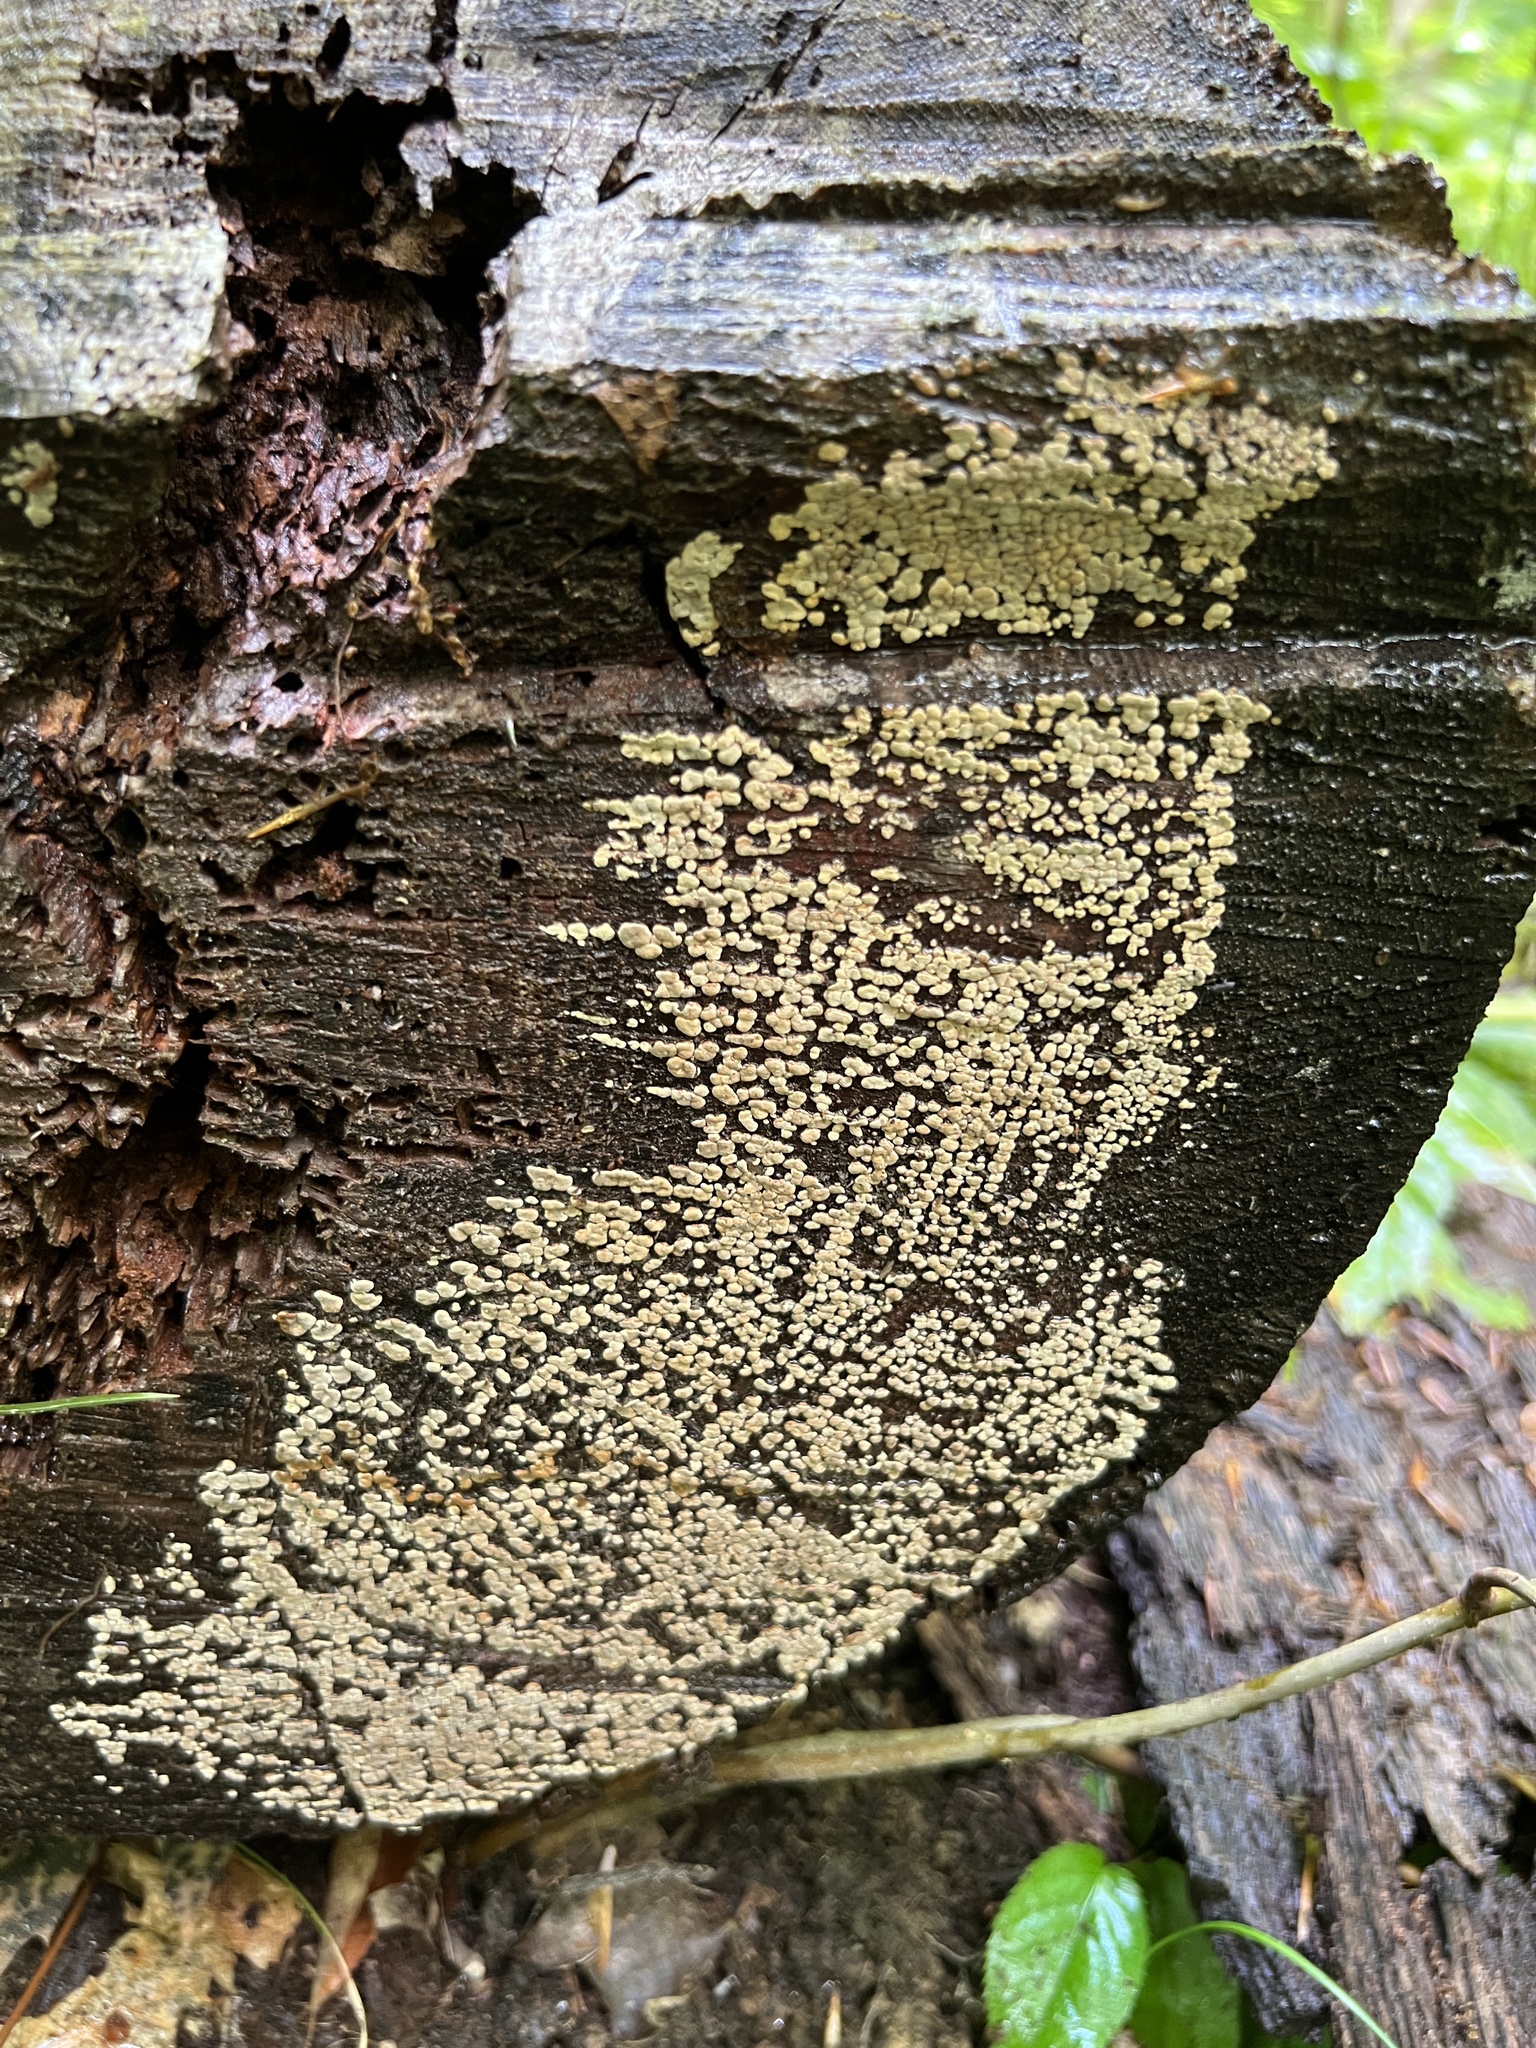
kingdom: Fungi
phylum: Basidiomycota
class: Agaricomycetes
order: Russulales
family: Stereaceae
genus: Xylobolus
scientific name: Xylobolus frustulatus
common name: Ceramic parchment
